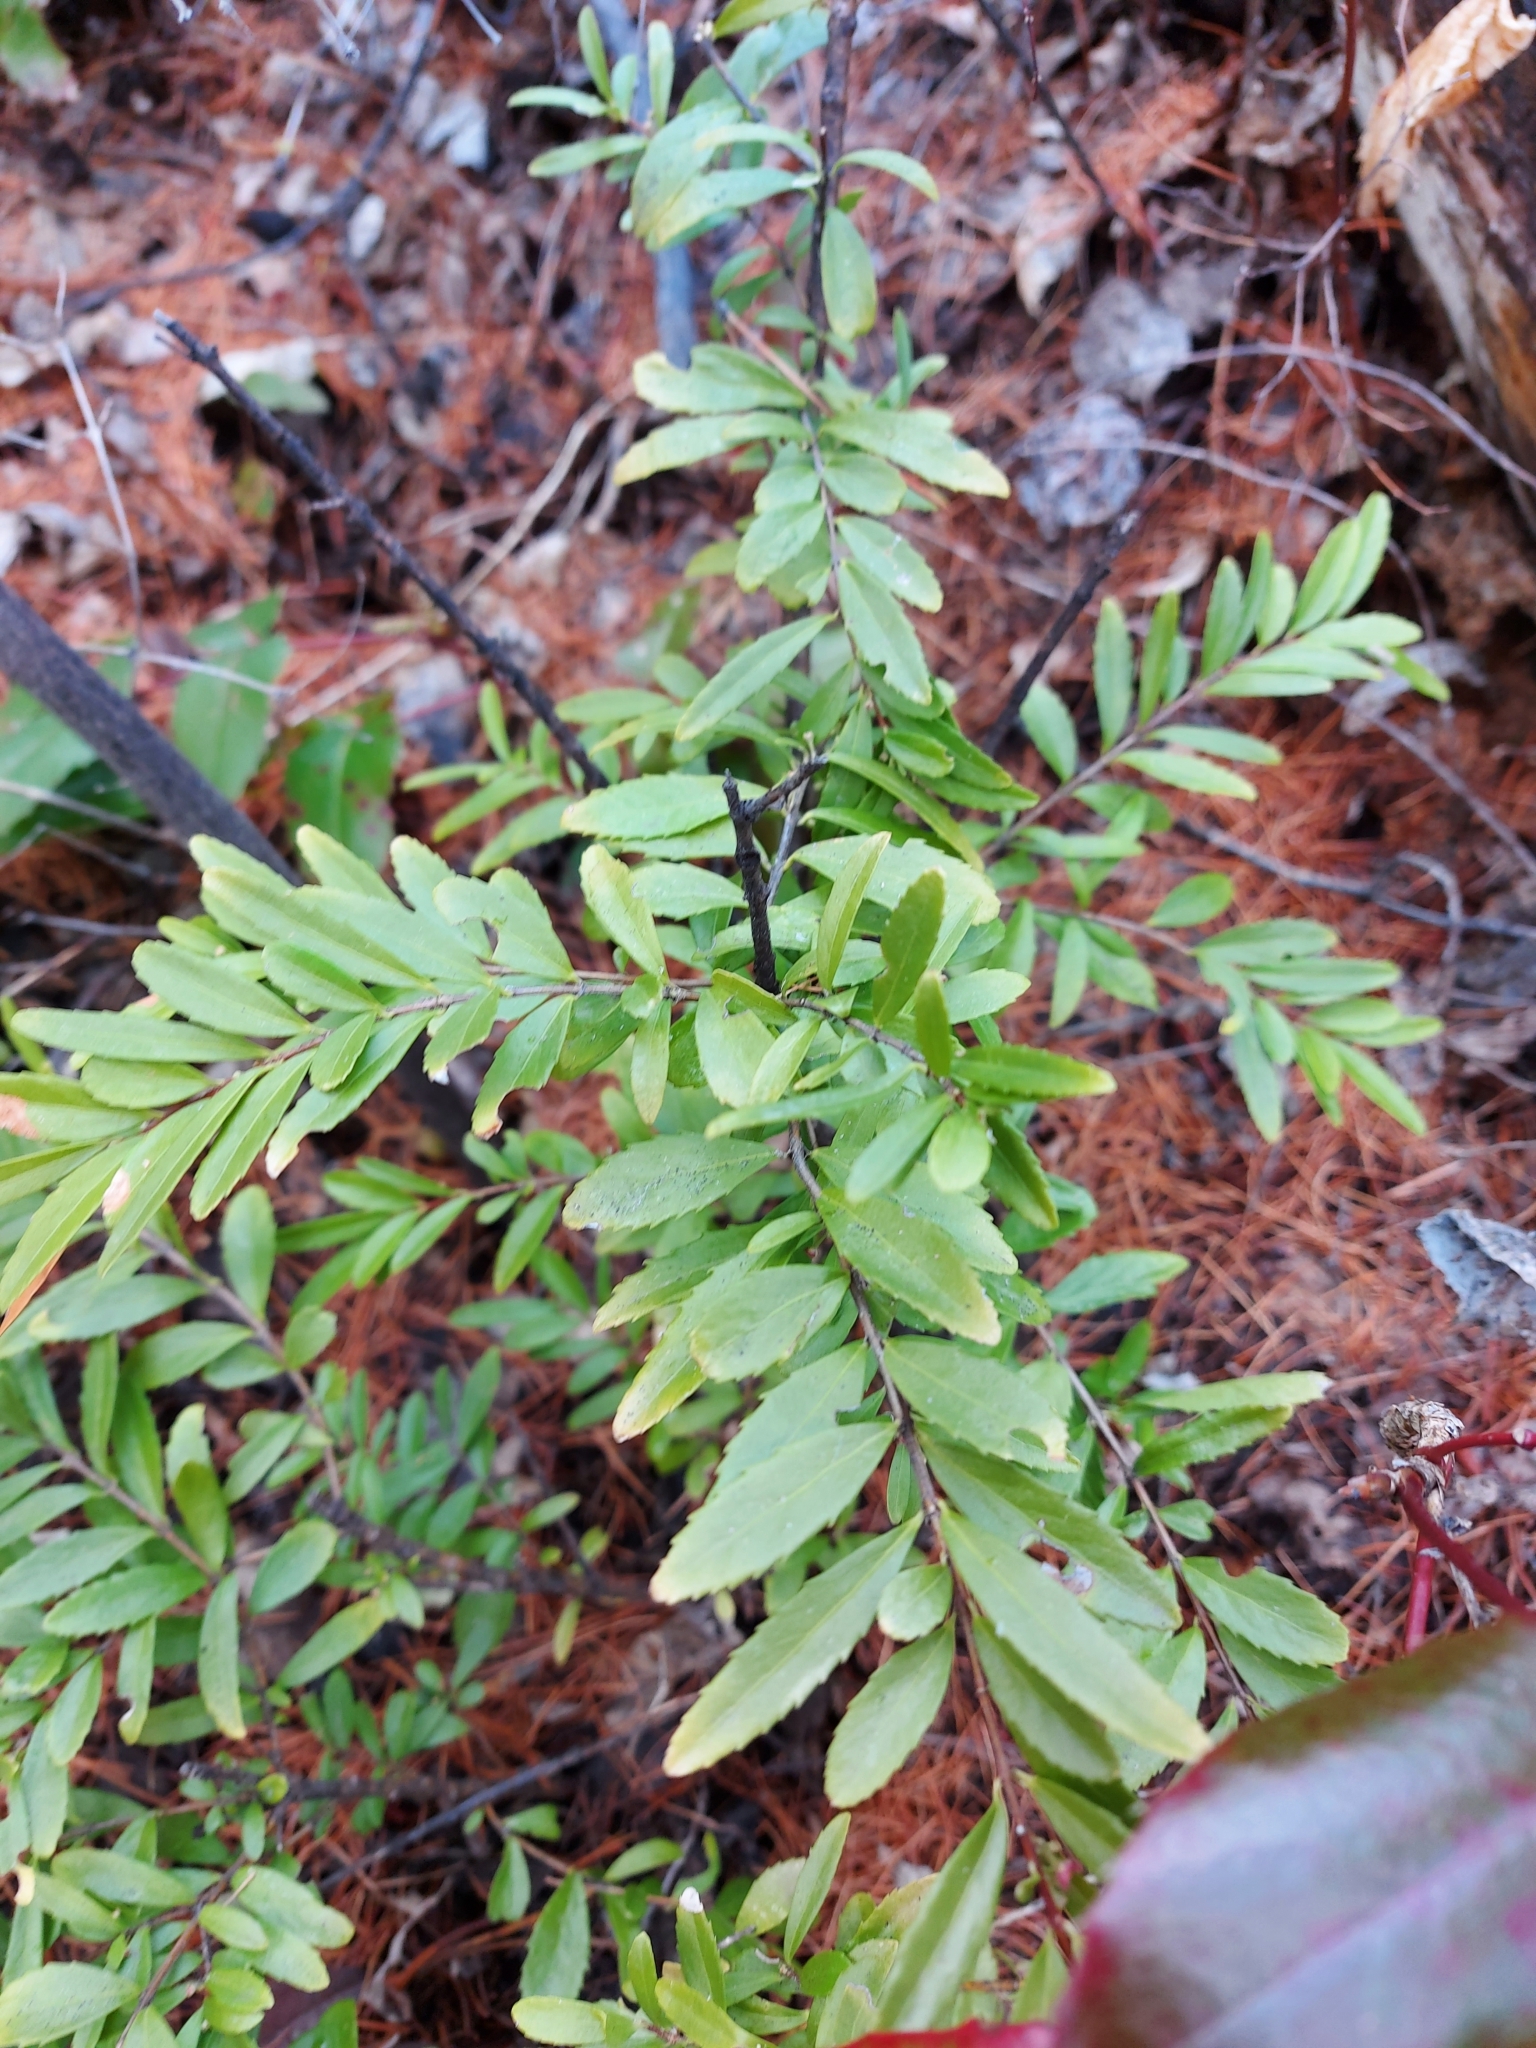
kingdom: Plantae
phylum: Tracheophyta
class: Magnoliopsida
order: Celastrales
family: Celastraceae
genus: Paxistima
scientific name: Paxistima myrsinites
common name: Mountain-lover
